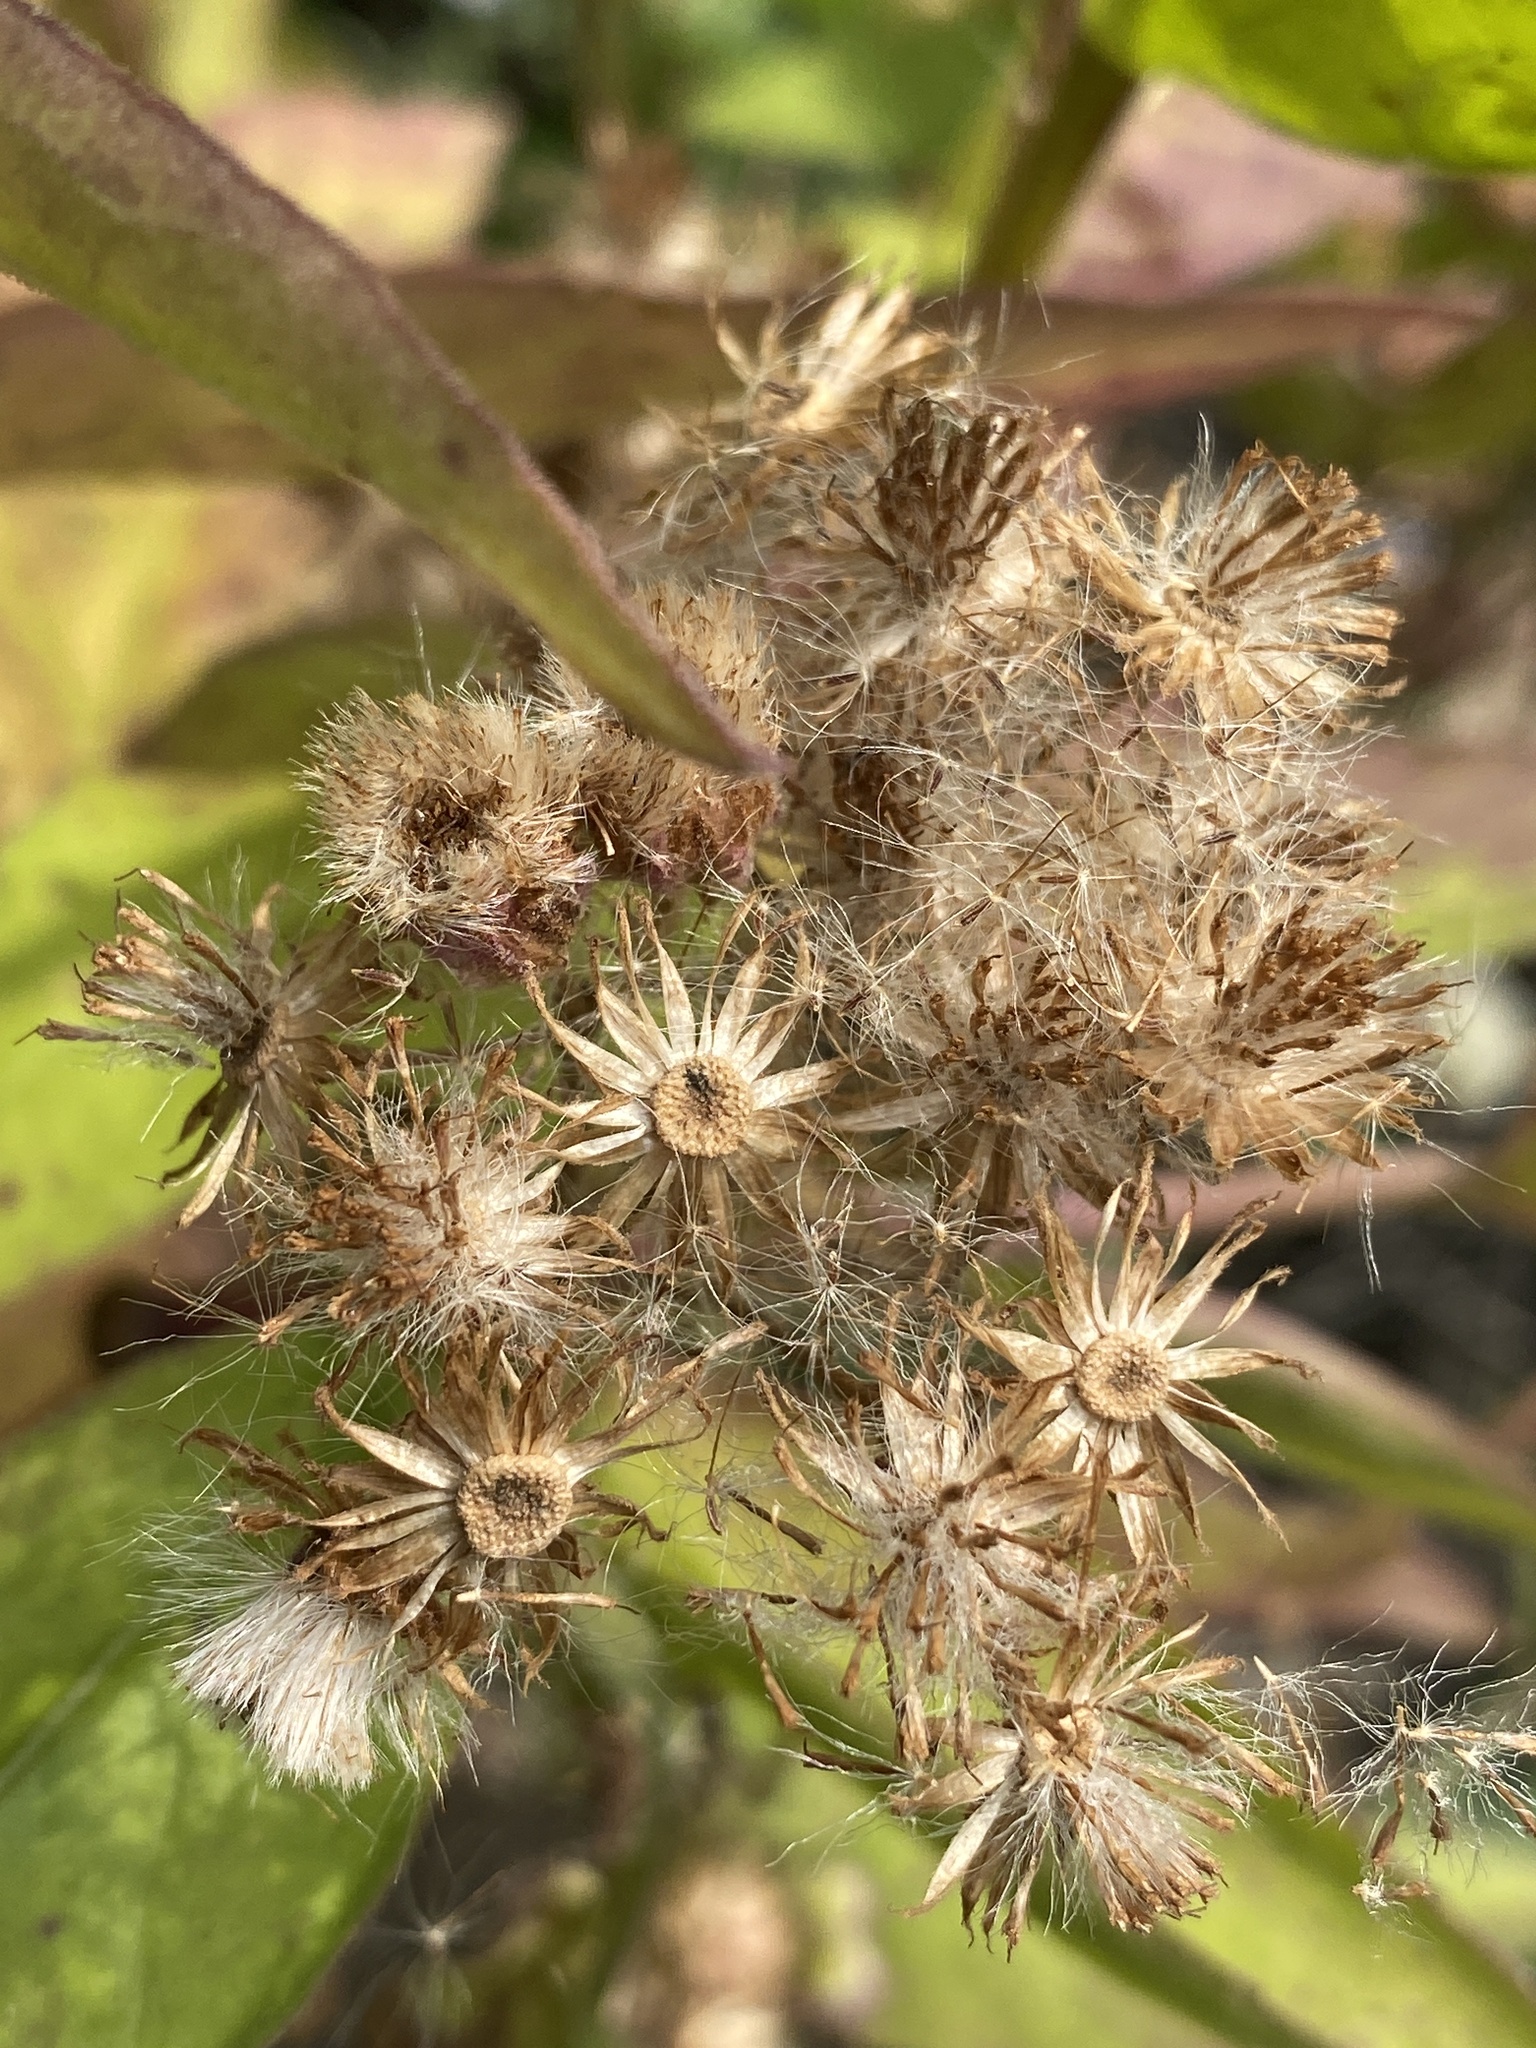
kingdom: Plantae
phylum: Tracheophyta
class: Magnoliopsida
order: Asterales
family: Asteraceae
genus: Pluchea
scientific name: Pluchea odorata
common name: Saltmarsh fleabane
